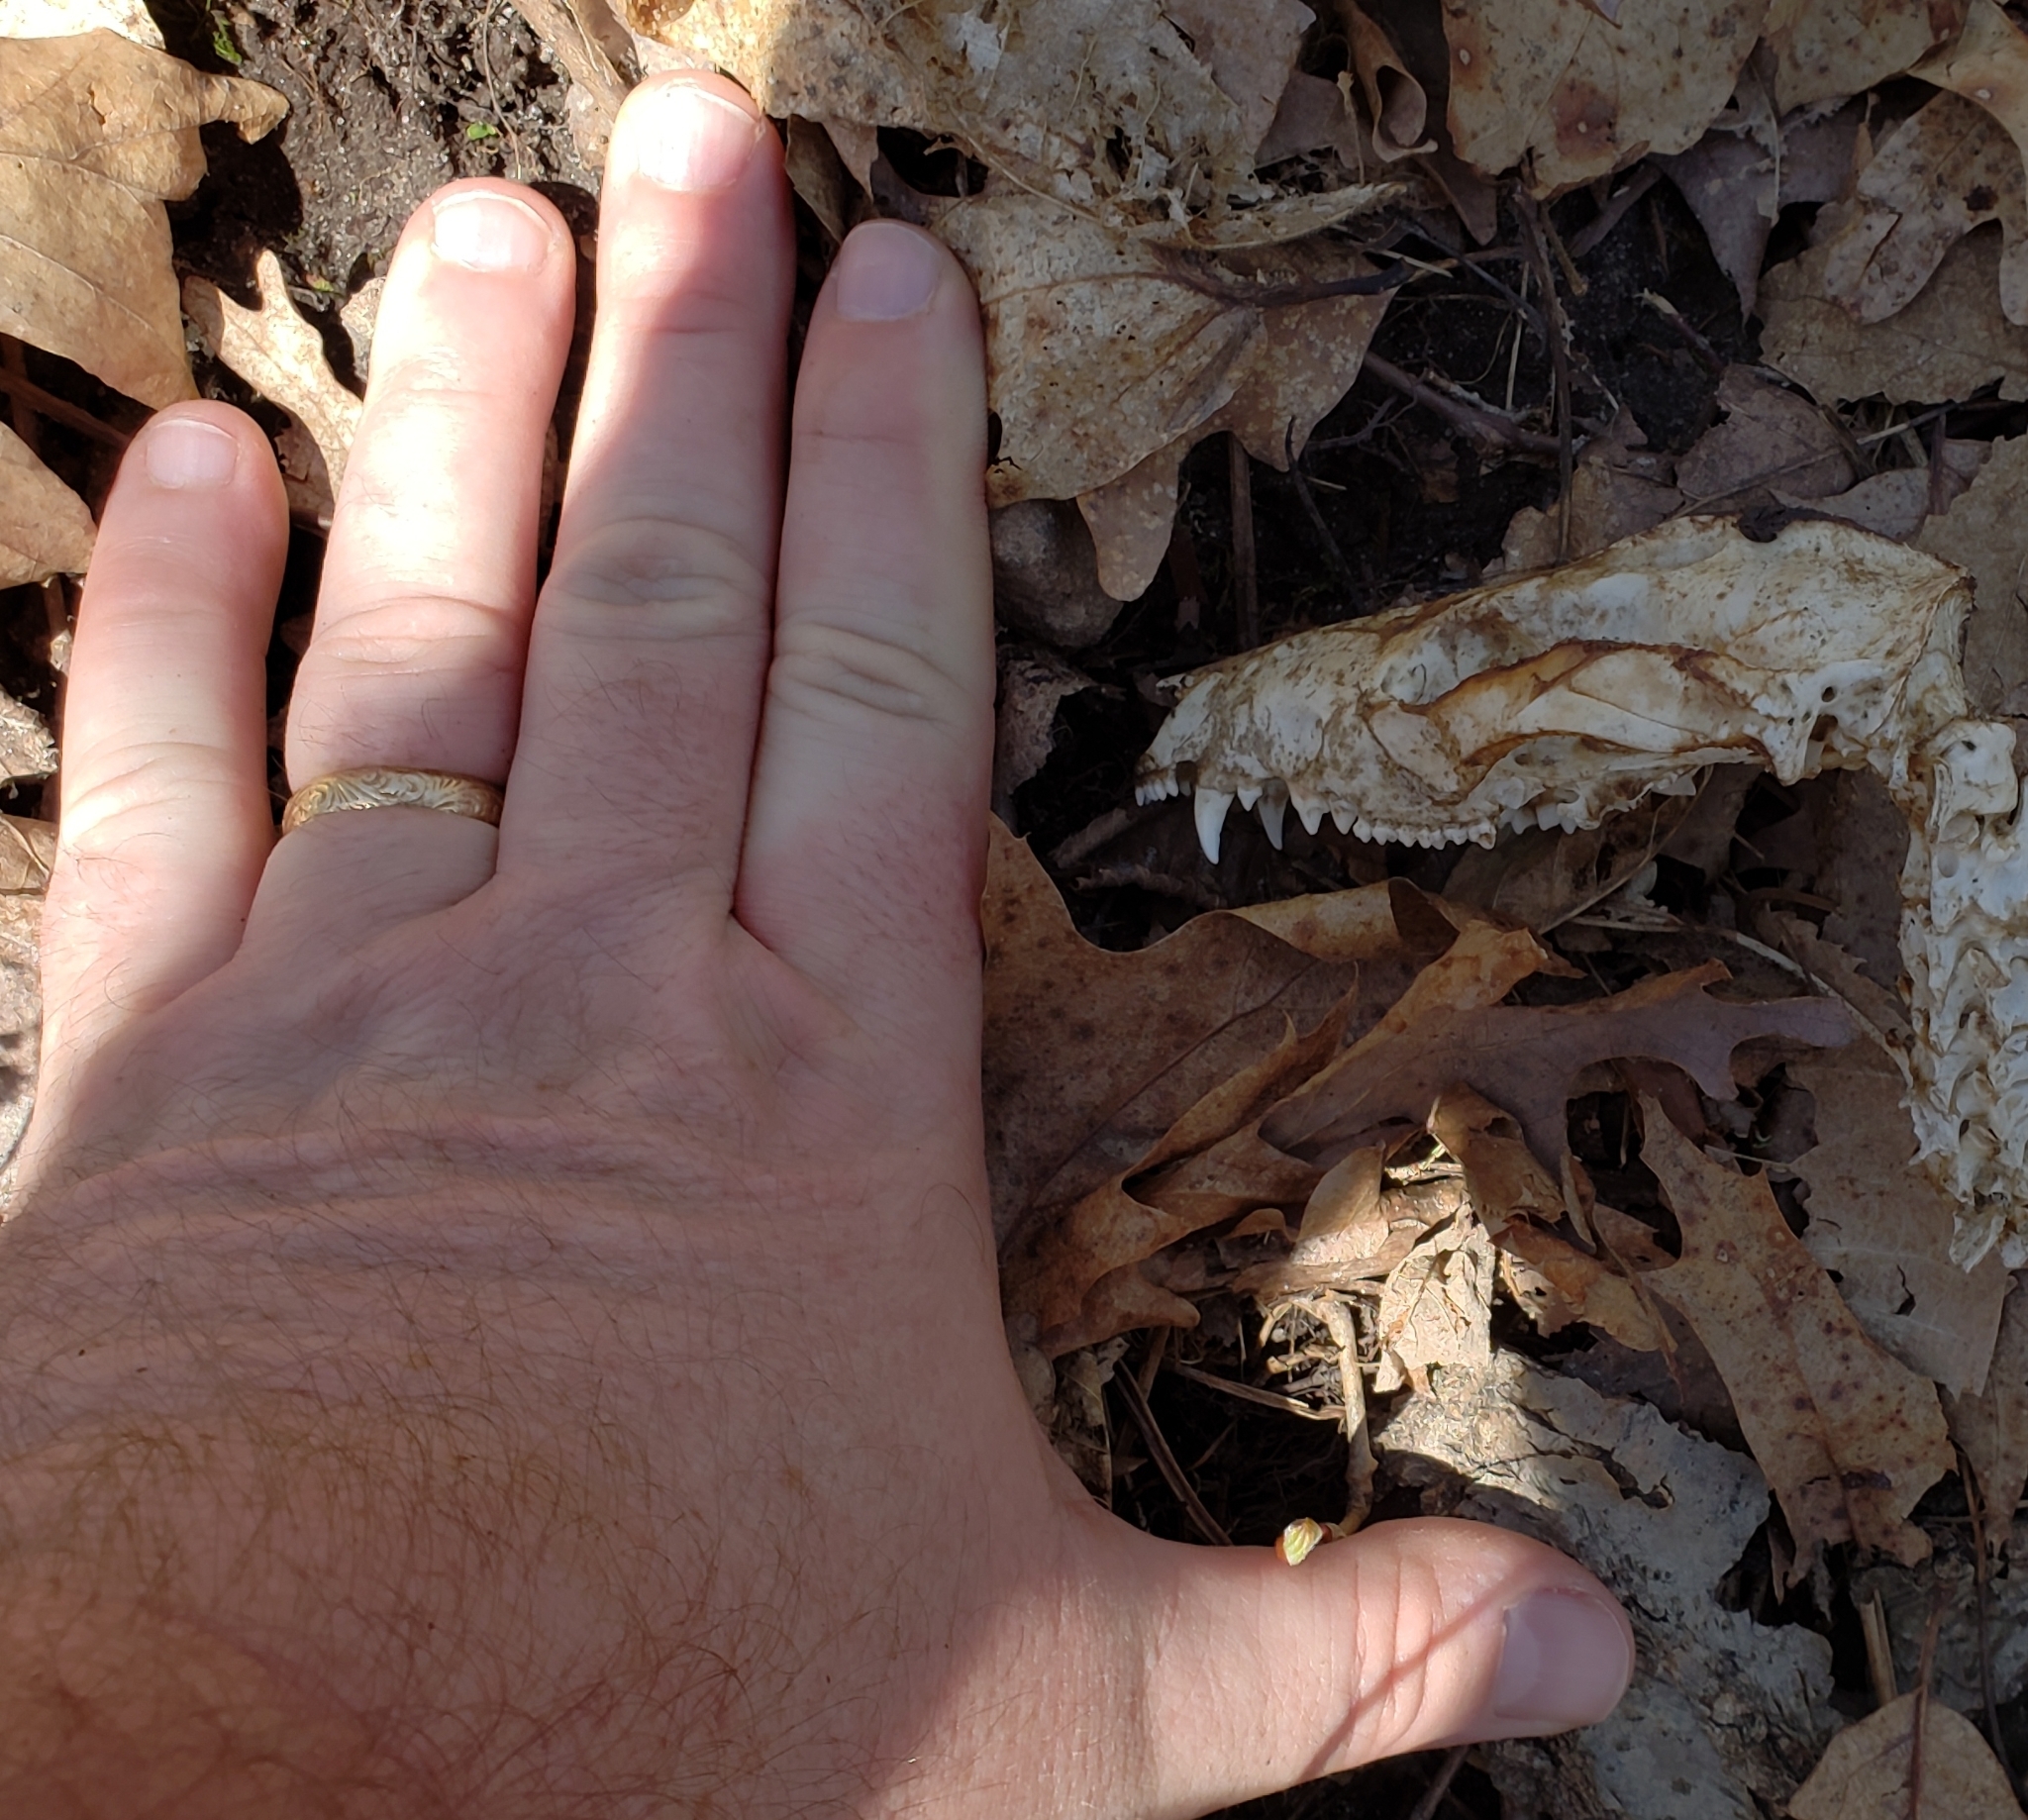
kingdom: Animalia
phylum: Chordata
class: Mammalia
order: Didelphimorphia
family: Didelphidae
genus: Didelphis
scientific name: Didelphis virginiana
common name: Virginia opossum
